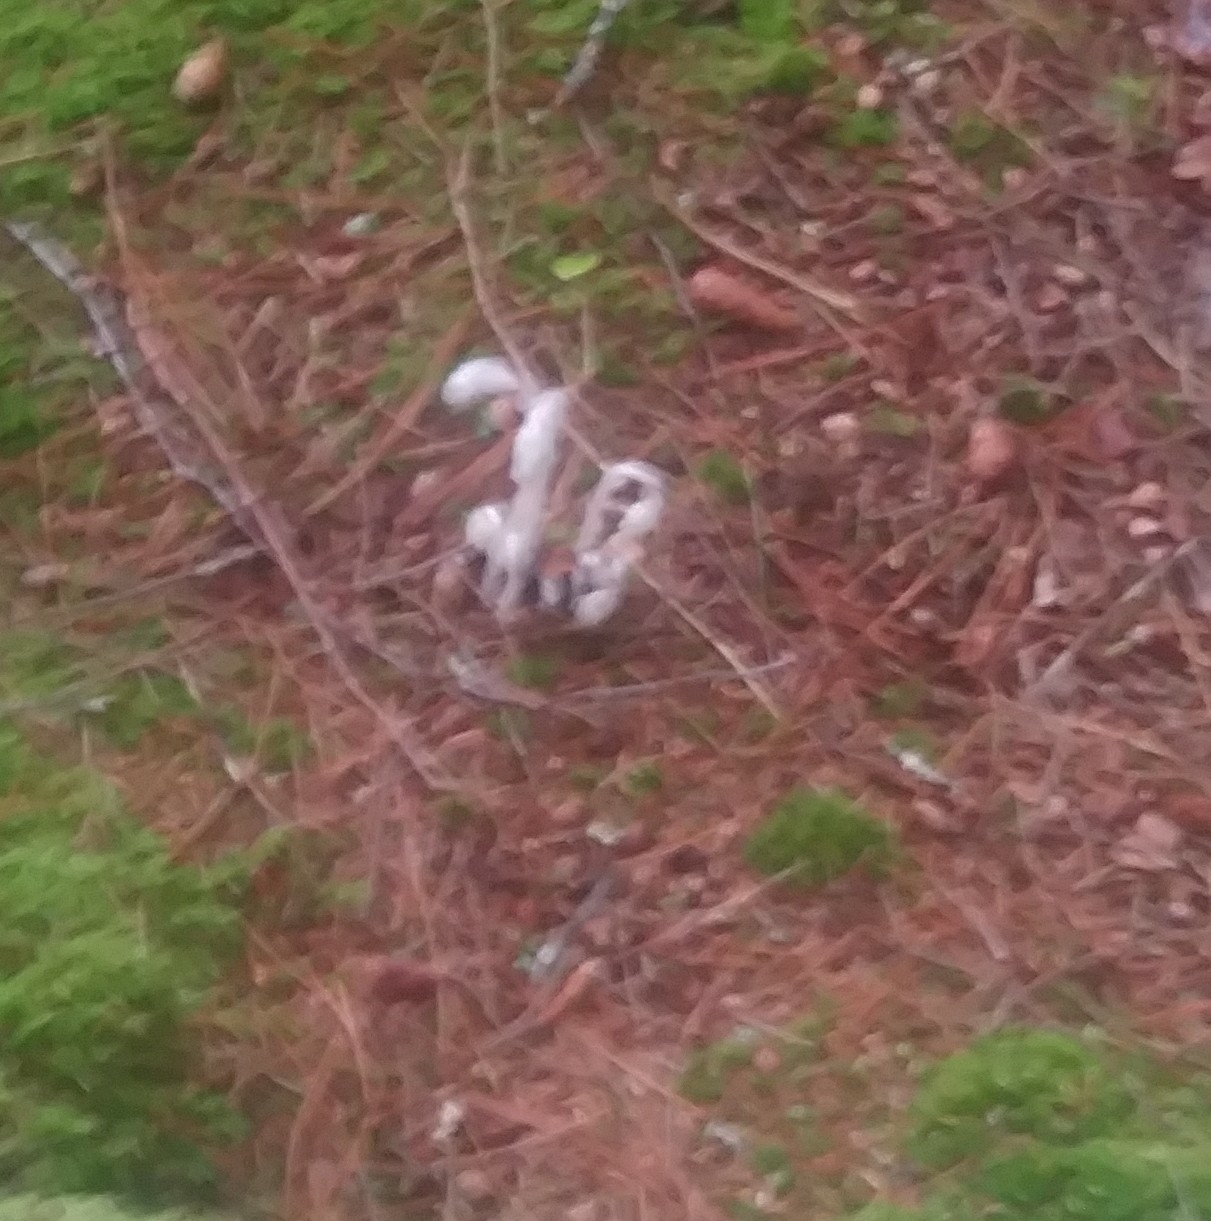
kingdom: Plantae
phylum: Tracheophyta
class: Magnoliopsida
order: Ericales
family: Ericaceae
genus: Monotropa
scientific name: Monotropa uniflora
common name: Convulsion root
